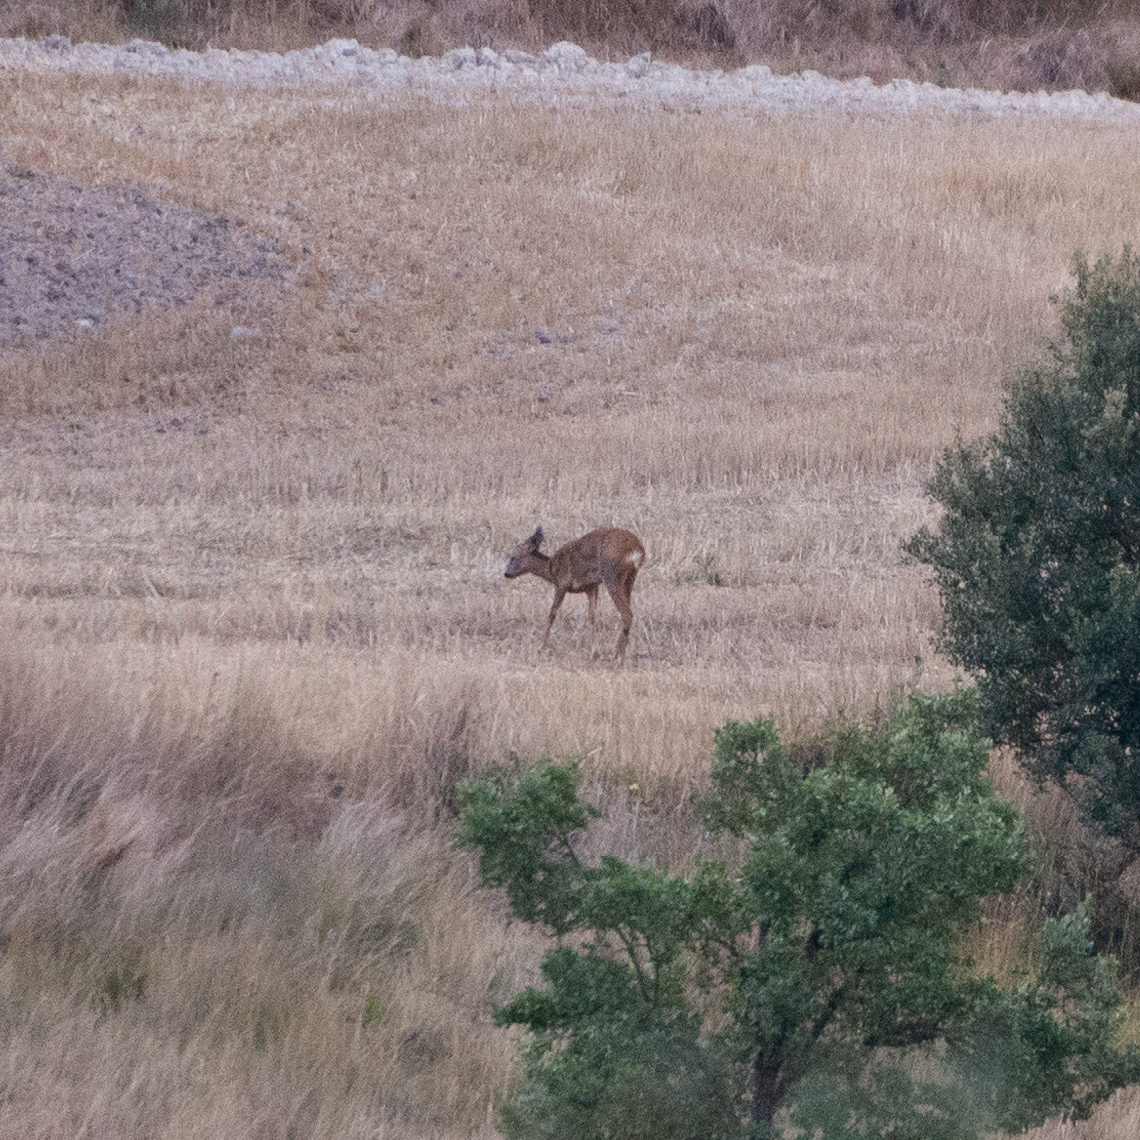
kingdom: Animalia
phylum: Chordata
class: Mammalia
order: Artiodactyla
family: Cervidae
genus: Capreolus
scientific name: Capreolus capreolus
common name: Western roe deer
